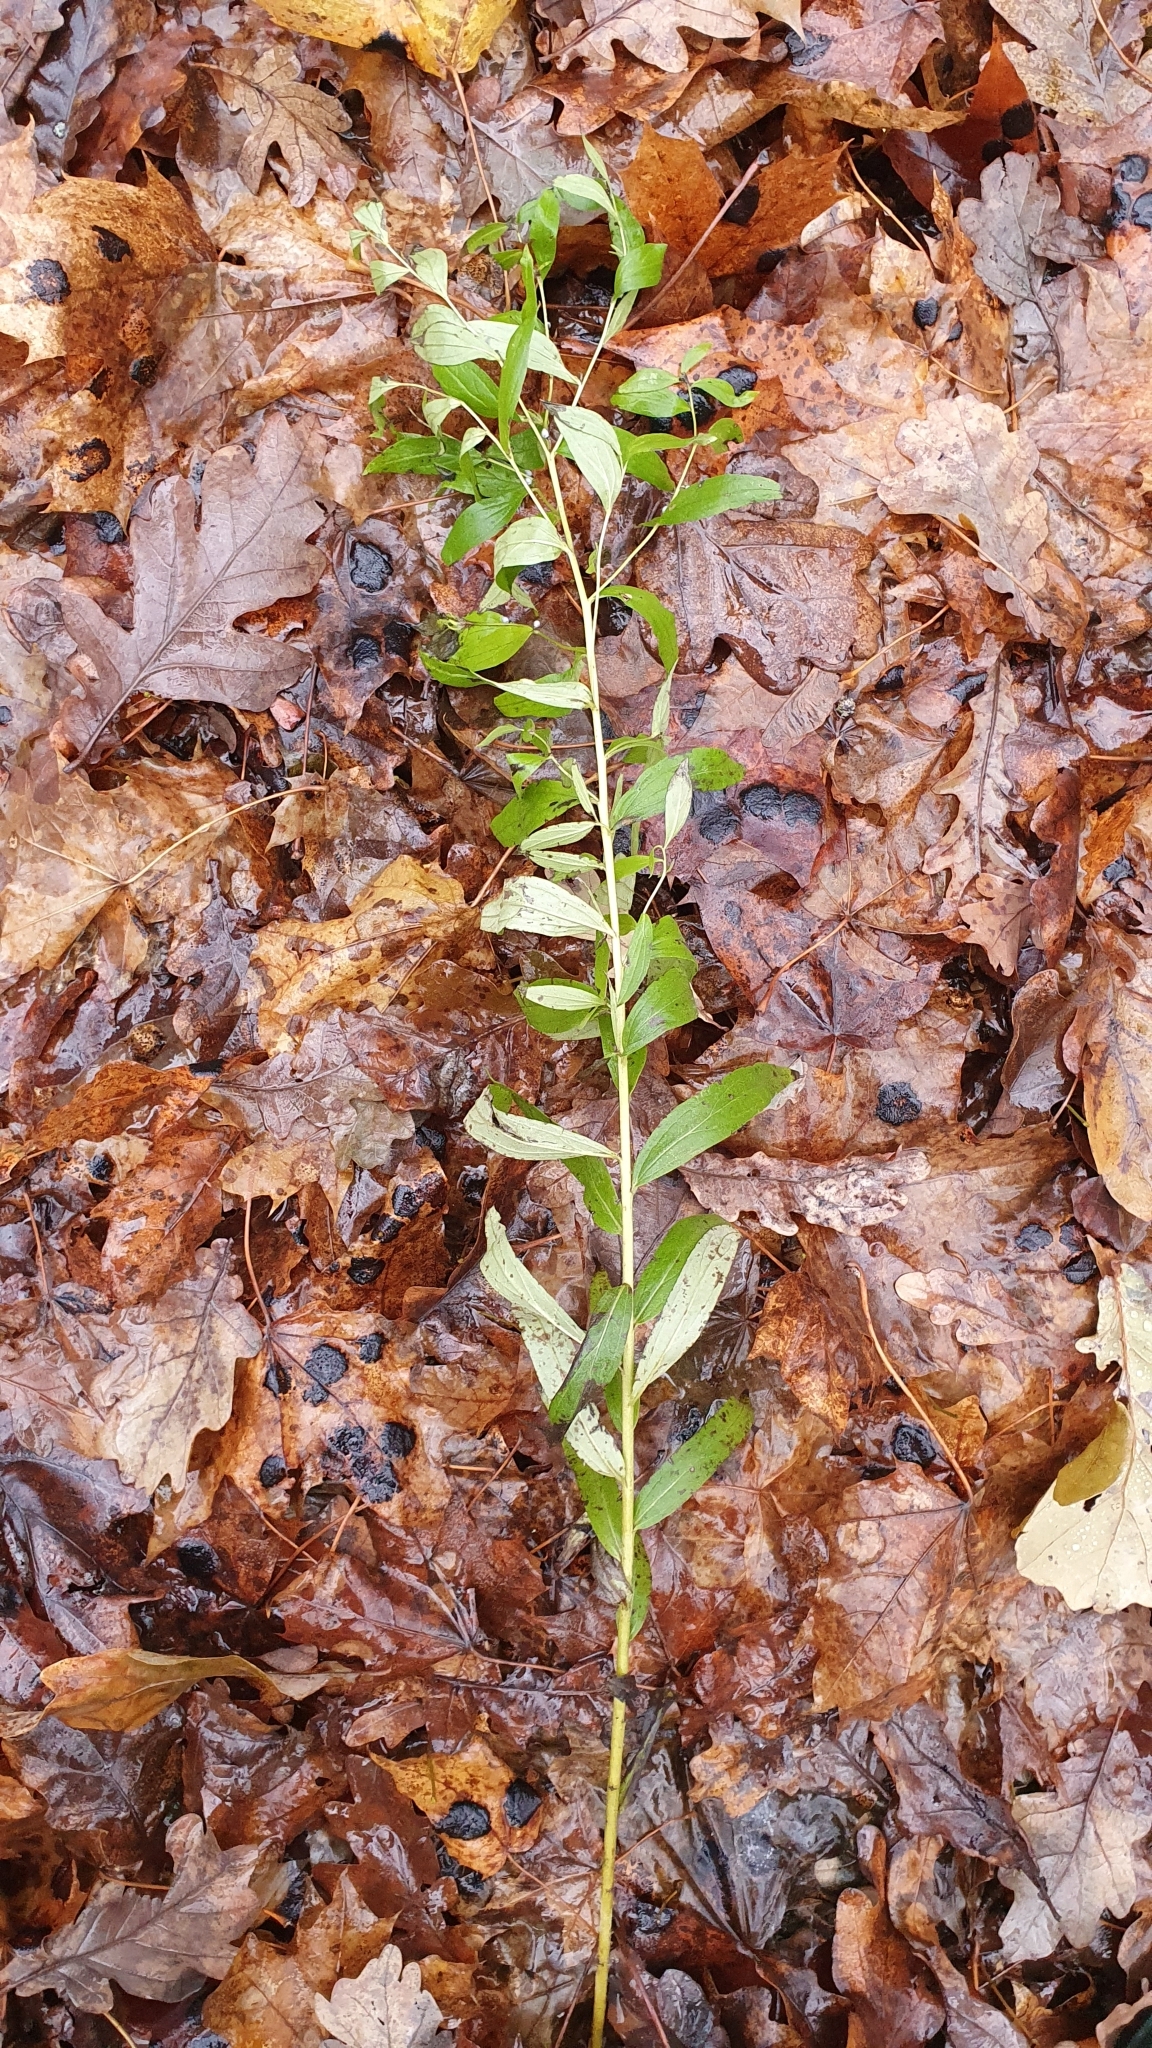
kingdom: Plantae
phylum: Tracheophyta
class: Magnoliopsida
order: Boraginales
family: Boraginaceae
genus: Lithospermum
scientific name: Lithospermum officinale
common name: Common gromwell
